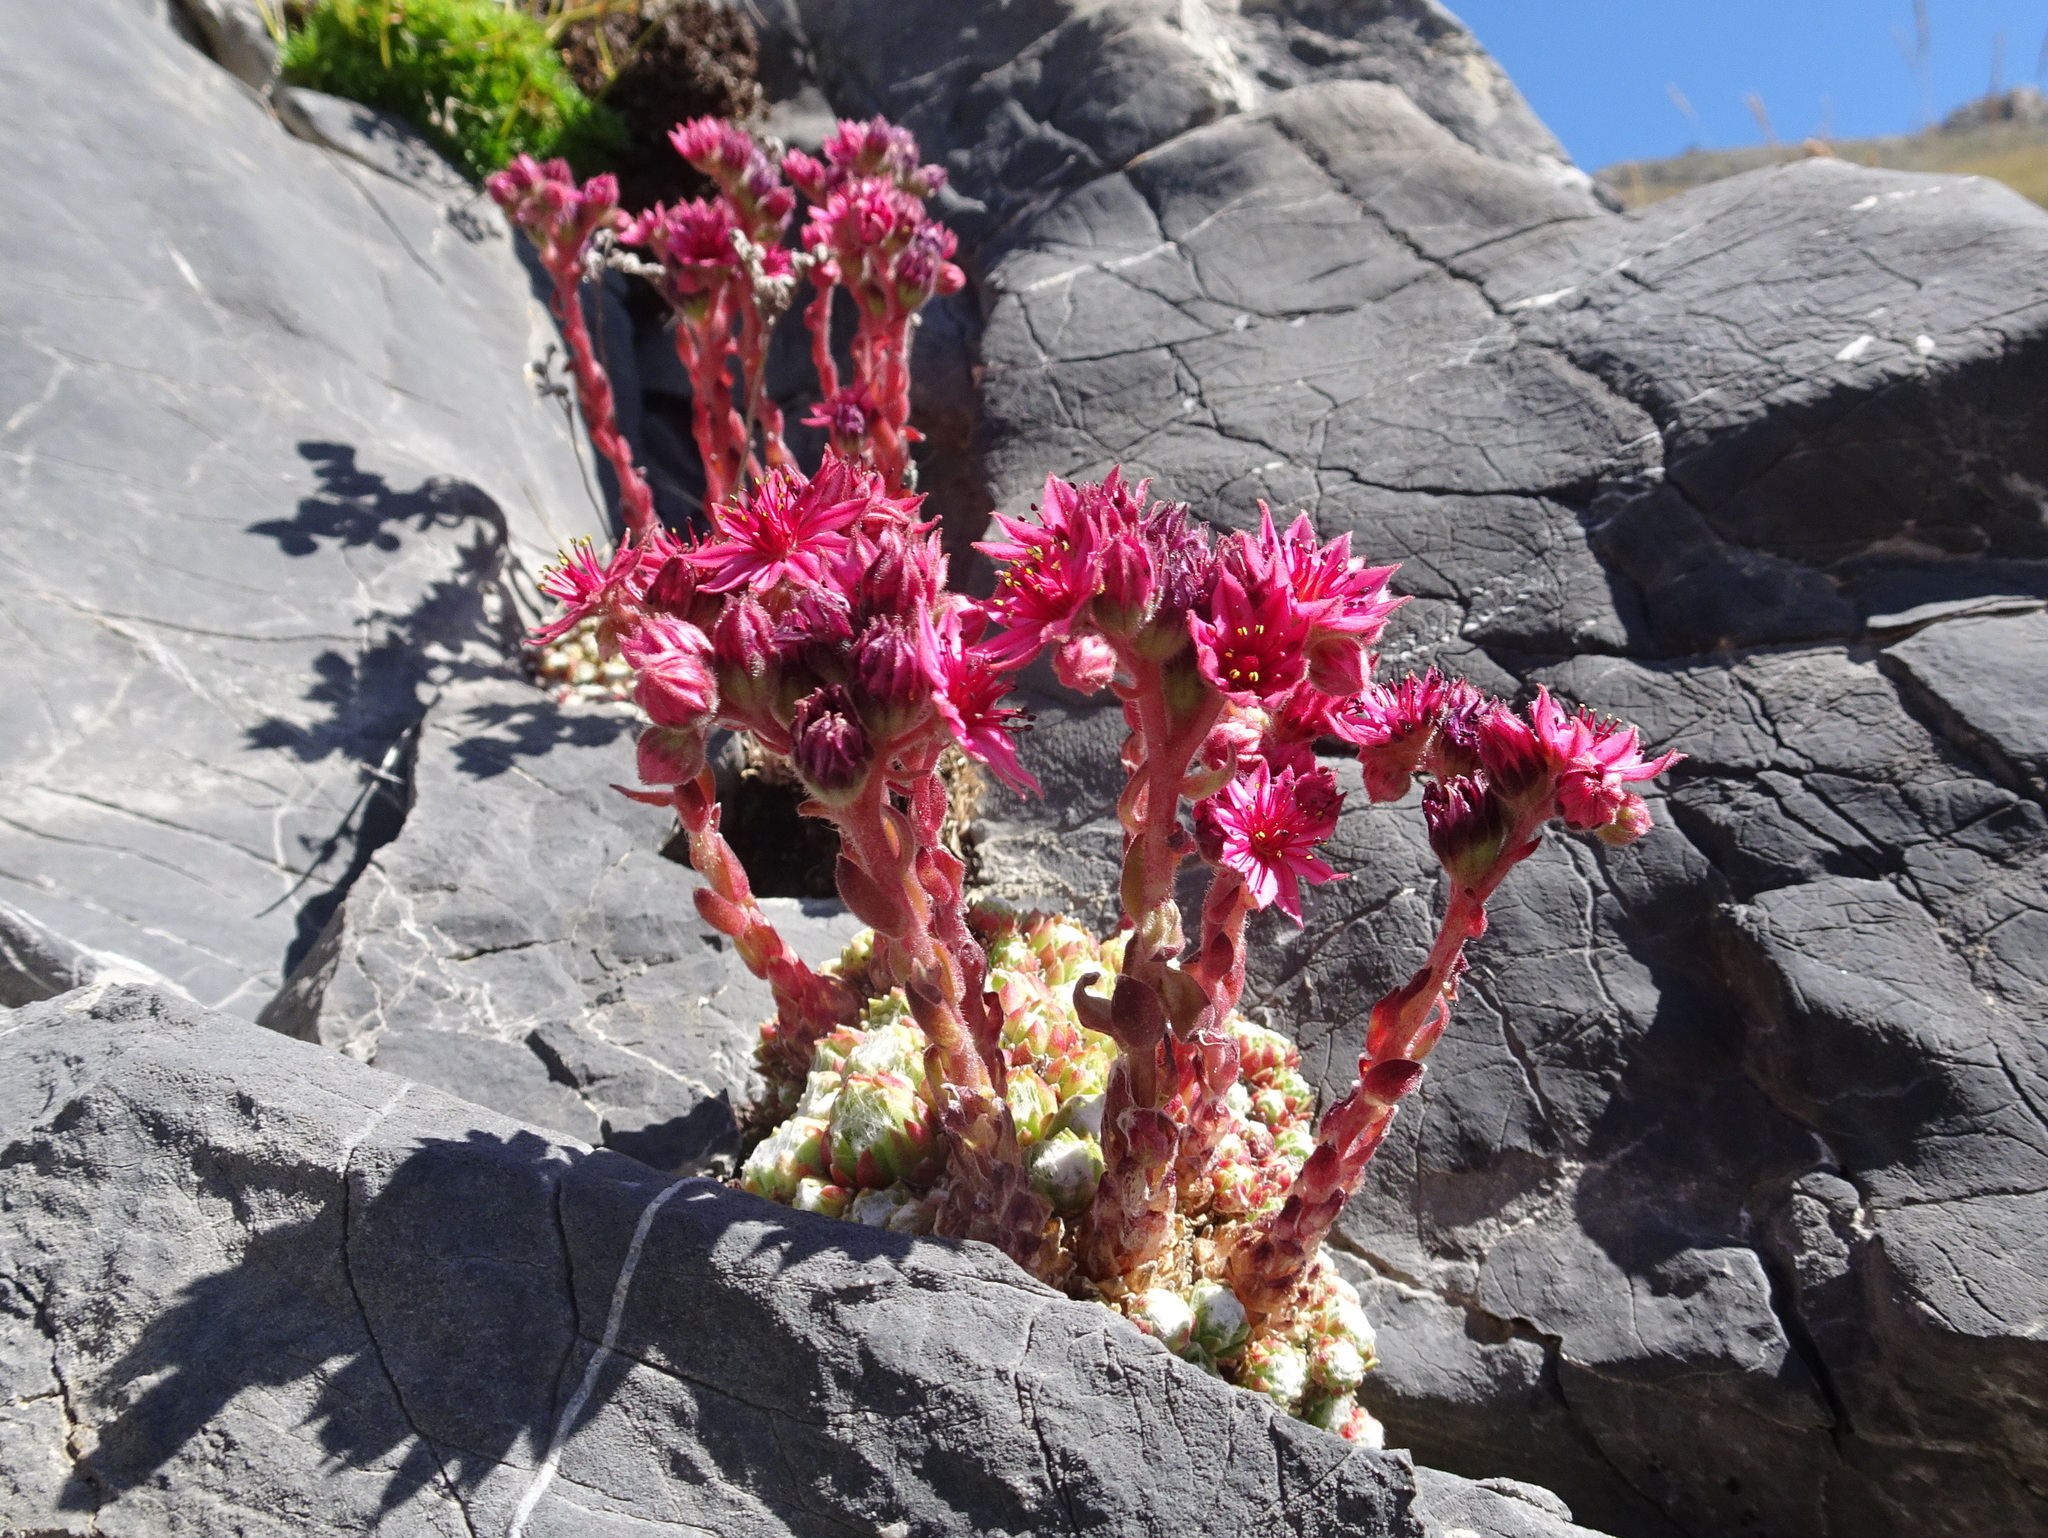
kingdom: Plantae
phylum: Tracheophyta
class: Magnoliopsida
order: Saxifragales
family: Crassulaceae
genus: Sempervivum
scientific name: Sempervivum arachnoideum
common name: Cobweb house-leek
